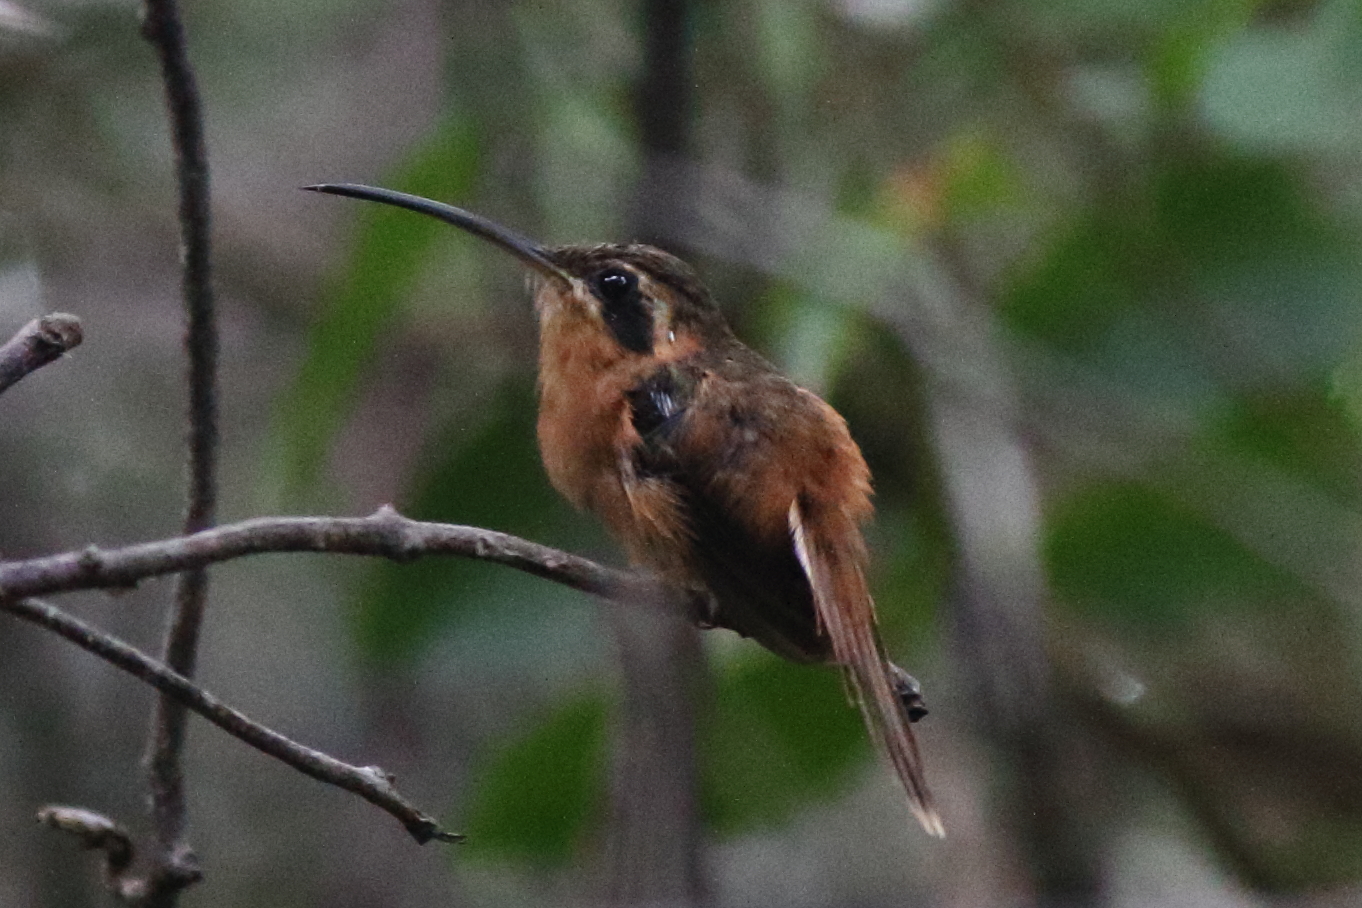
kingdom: Animalia
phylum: Chordata
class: Aves
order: Apodiformes
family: Trochilidae
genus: Phaethornis
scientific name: Phaethornis ruber
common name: Reddish hermit
